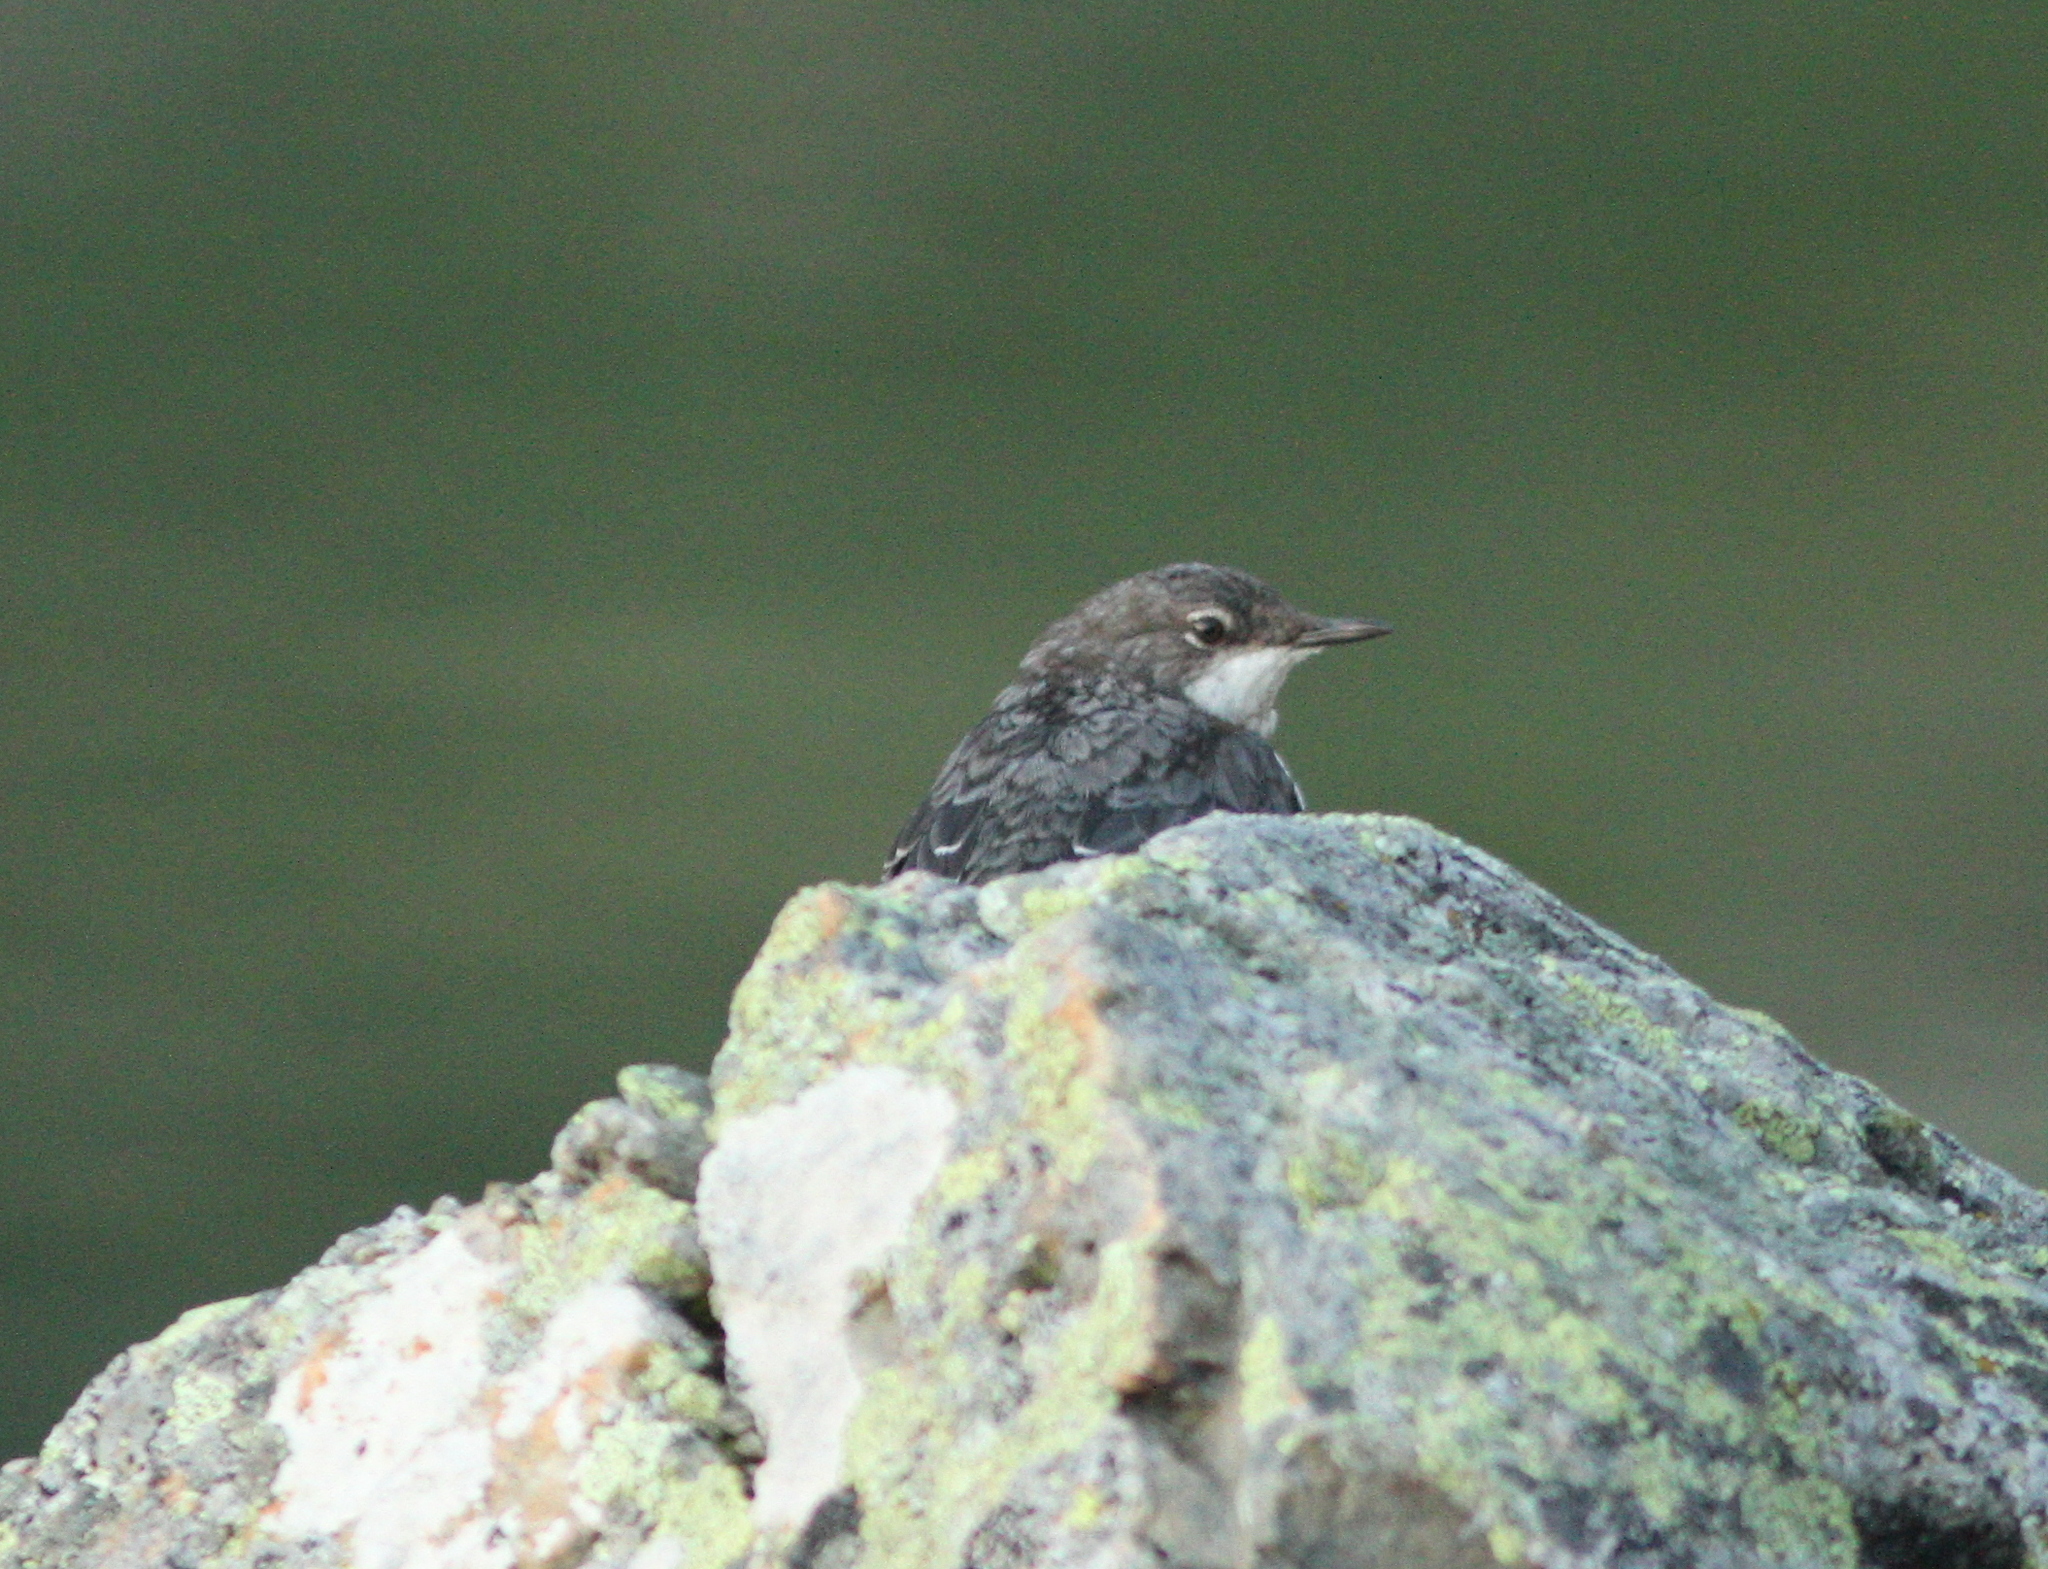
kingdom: Animalia
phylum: Chordata
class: Aves
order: Passeriformes
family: Cinclidae
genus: Cinclus
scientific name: Cinclus cinclus
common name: White-throated dipper
